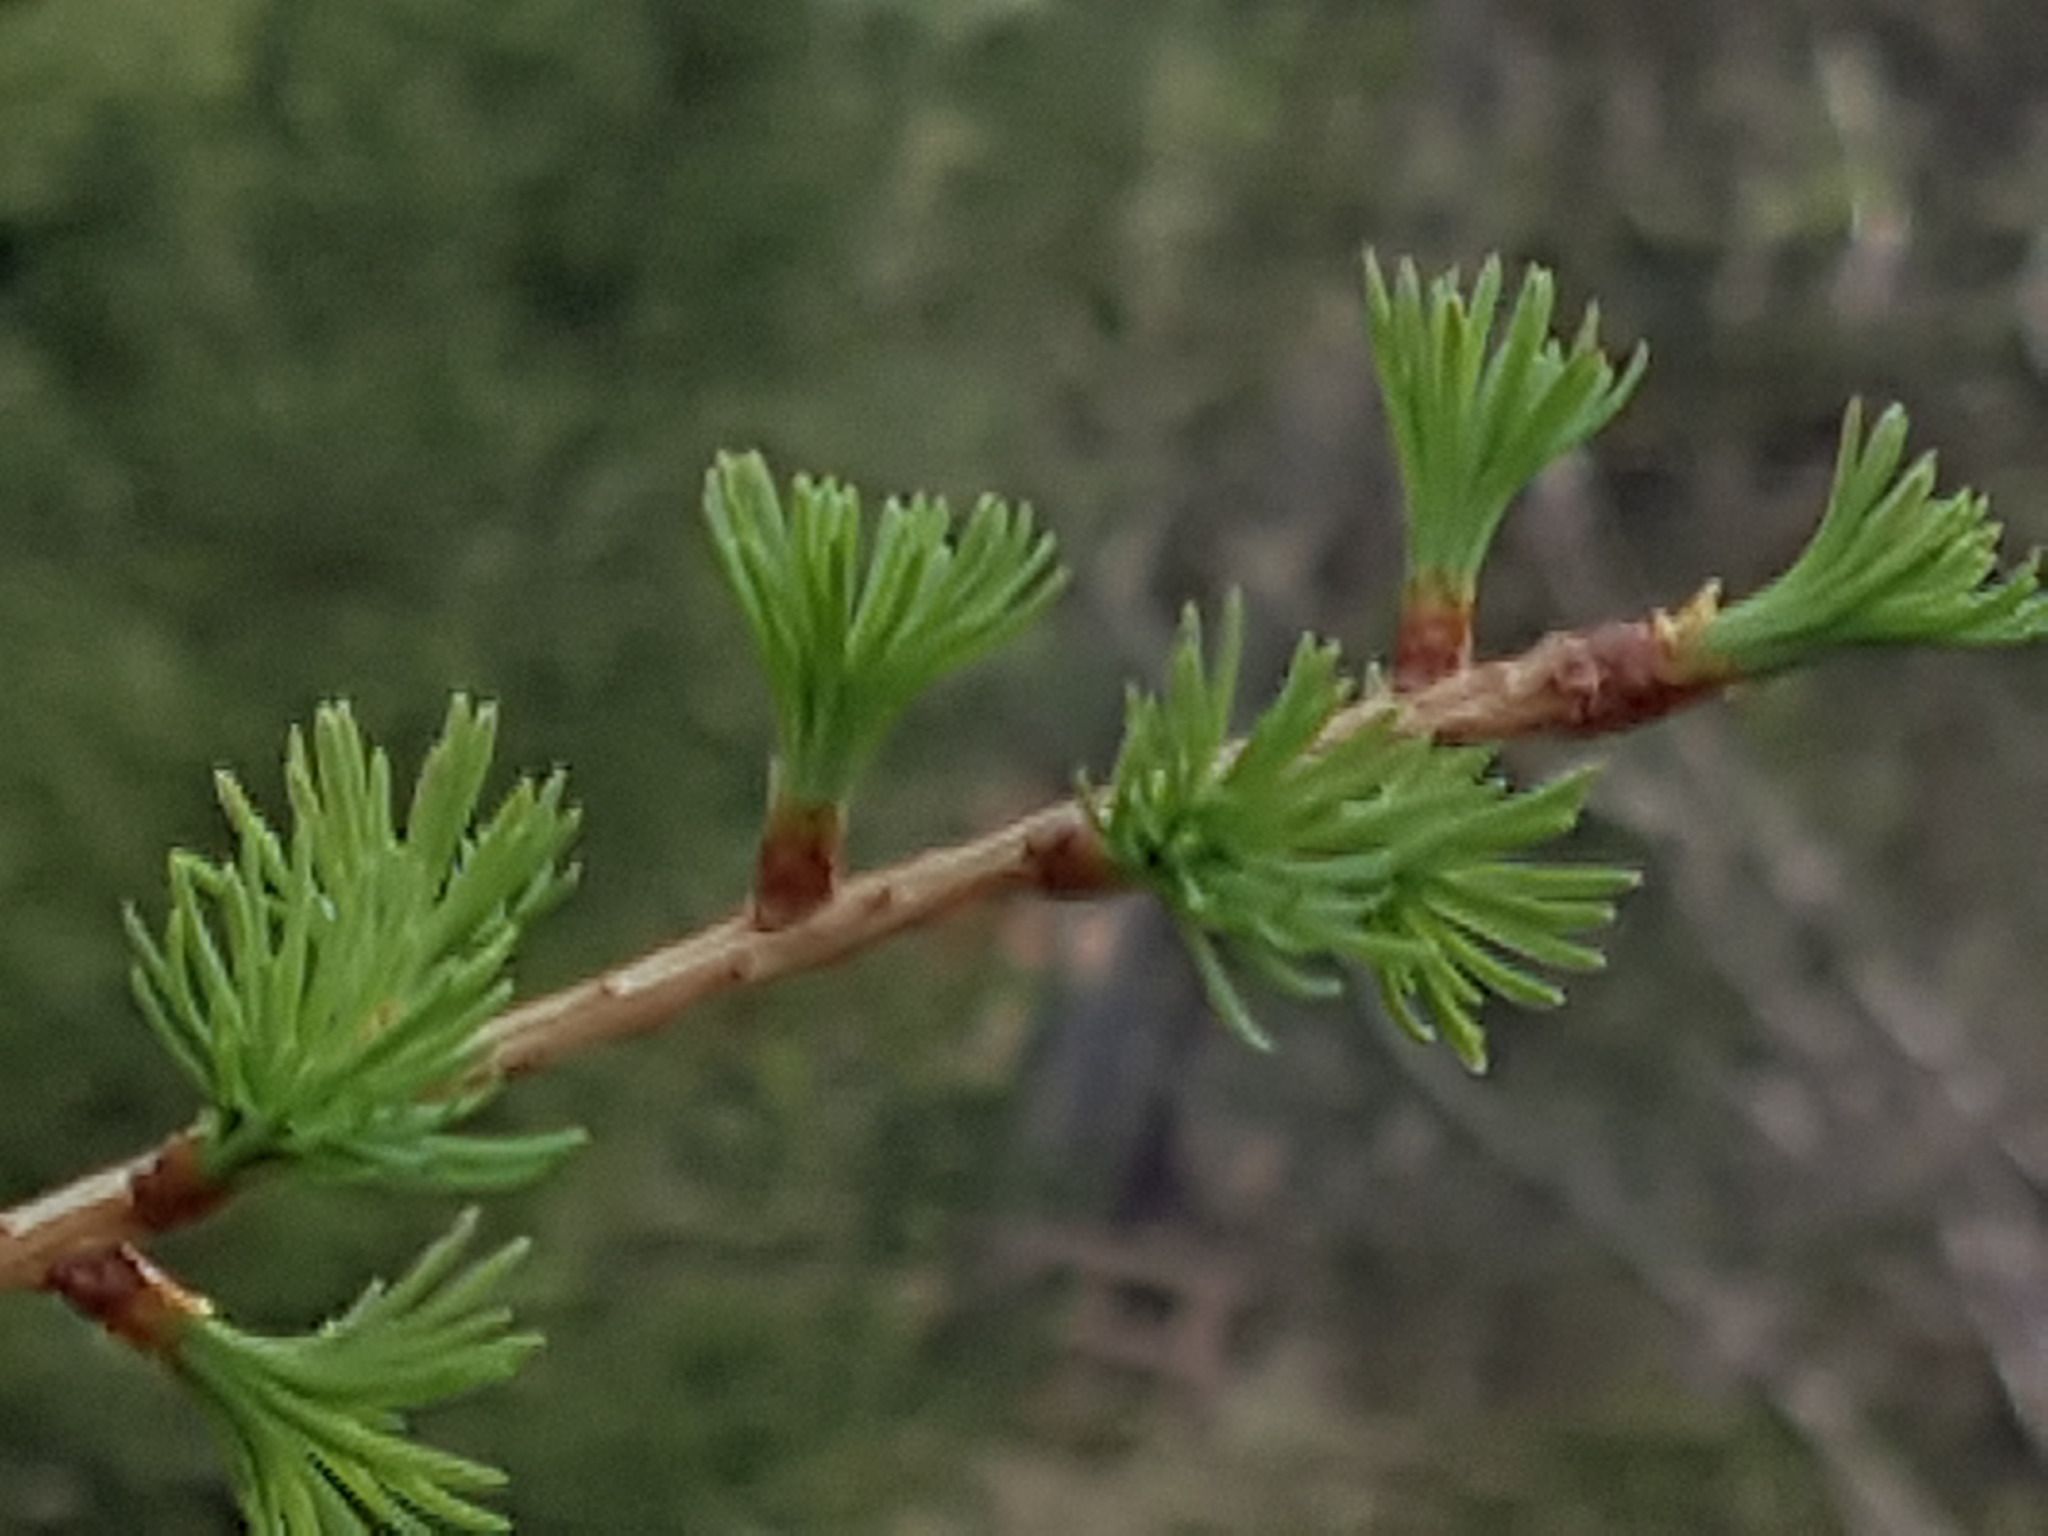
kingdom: Plantae
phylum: Tracheophyta
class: Pinopsida
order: Pinales
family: Pinaceae
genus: Larix
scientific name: Larix occidentalis
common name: Western larch
